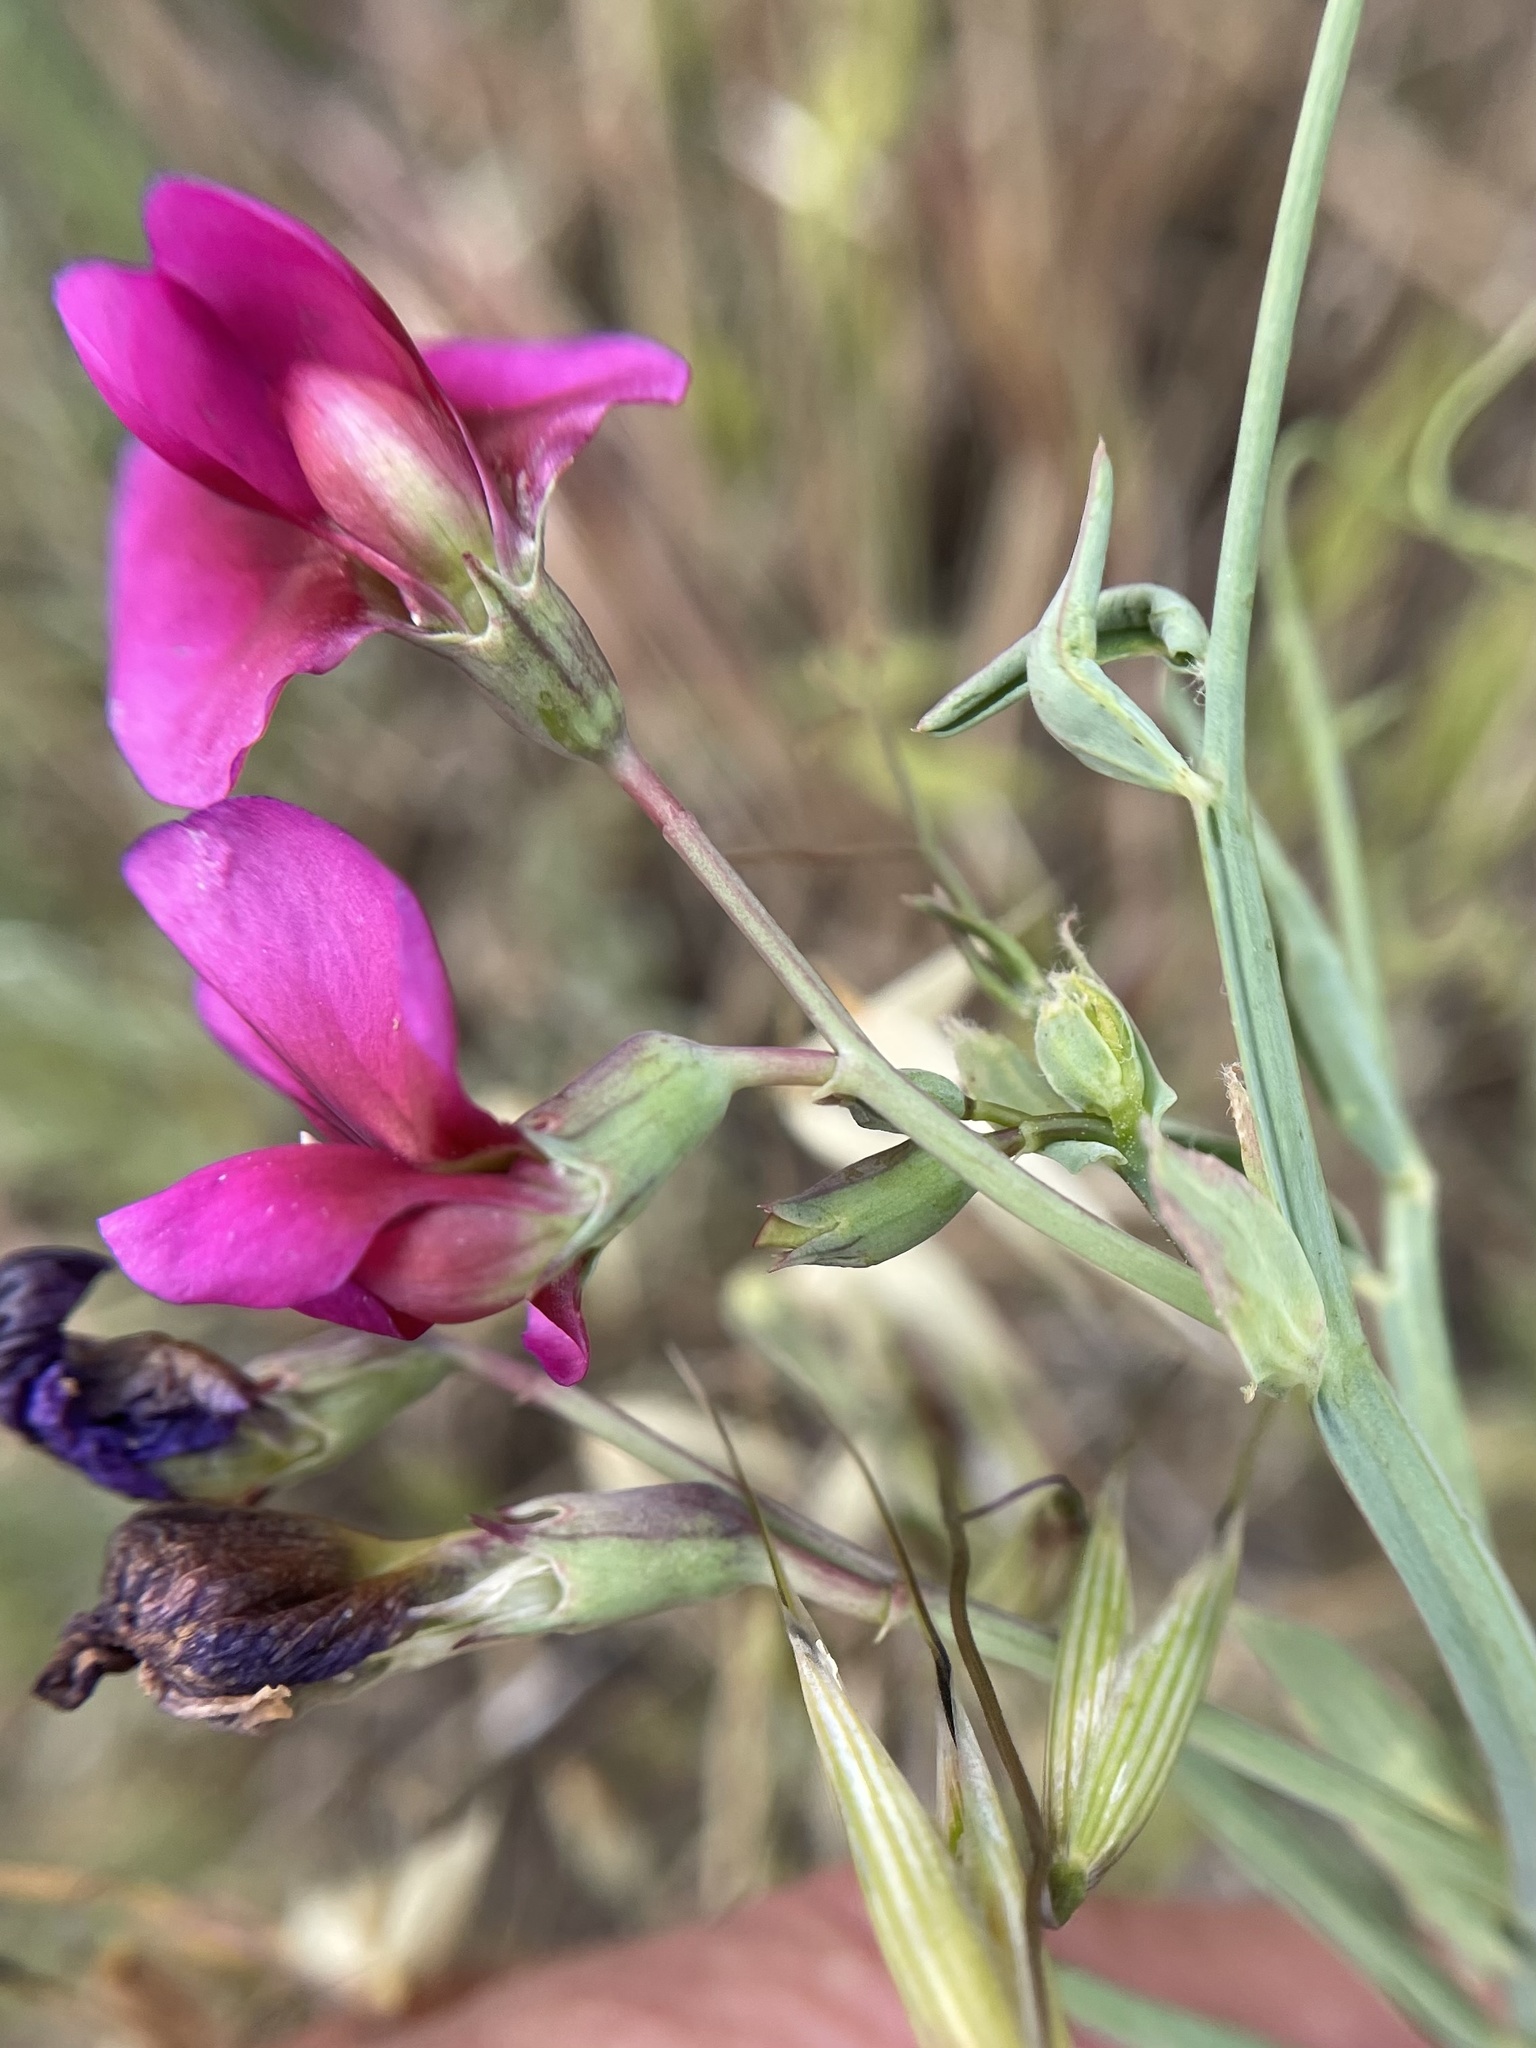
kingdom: Plantae
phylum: Tracheophyta
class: Magnoliopsida
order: Fabales
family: Fabaceae
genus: Lathyrus
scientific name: Lathyrus tingitanus
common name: Tangier pea
